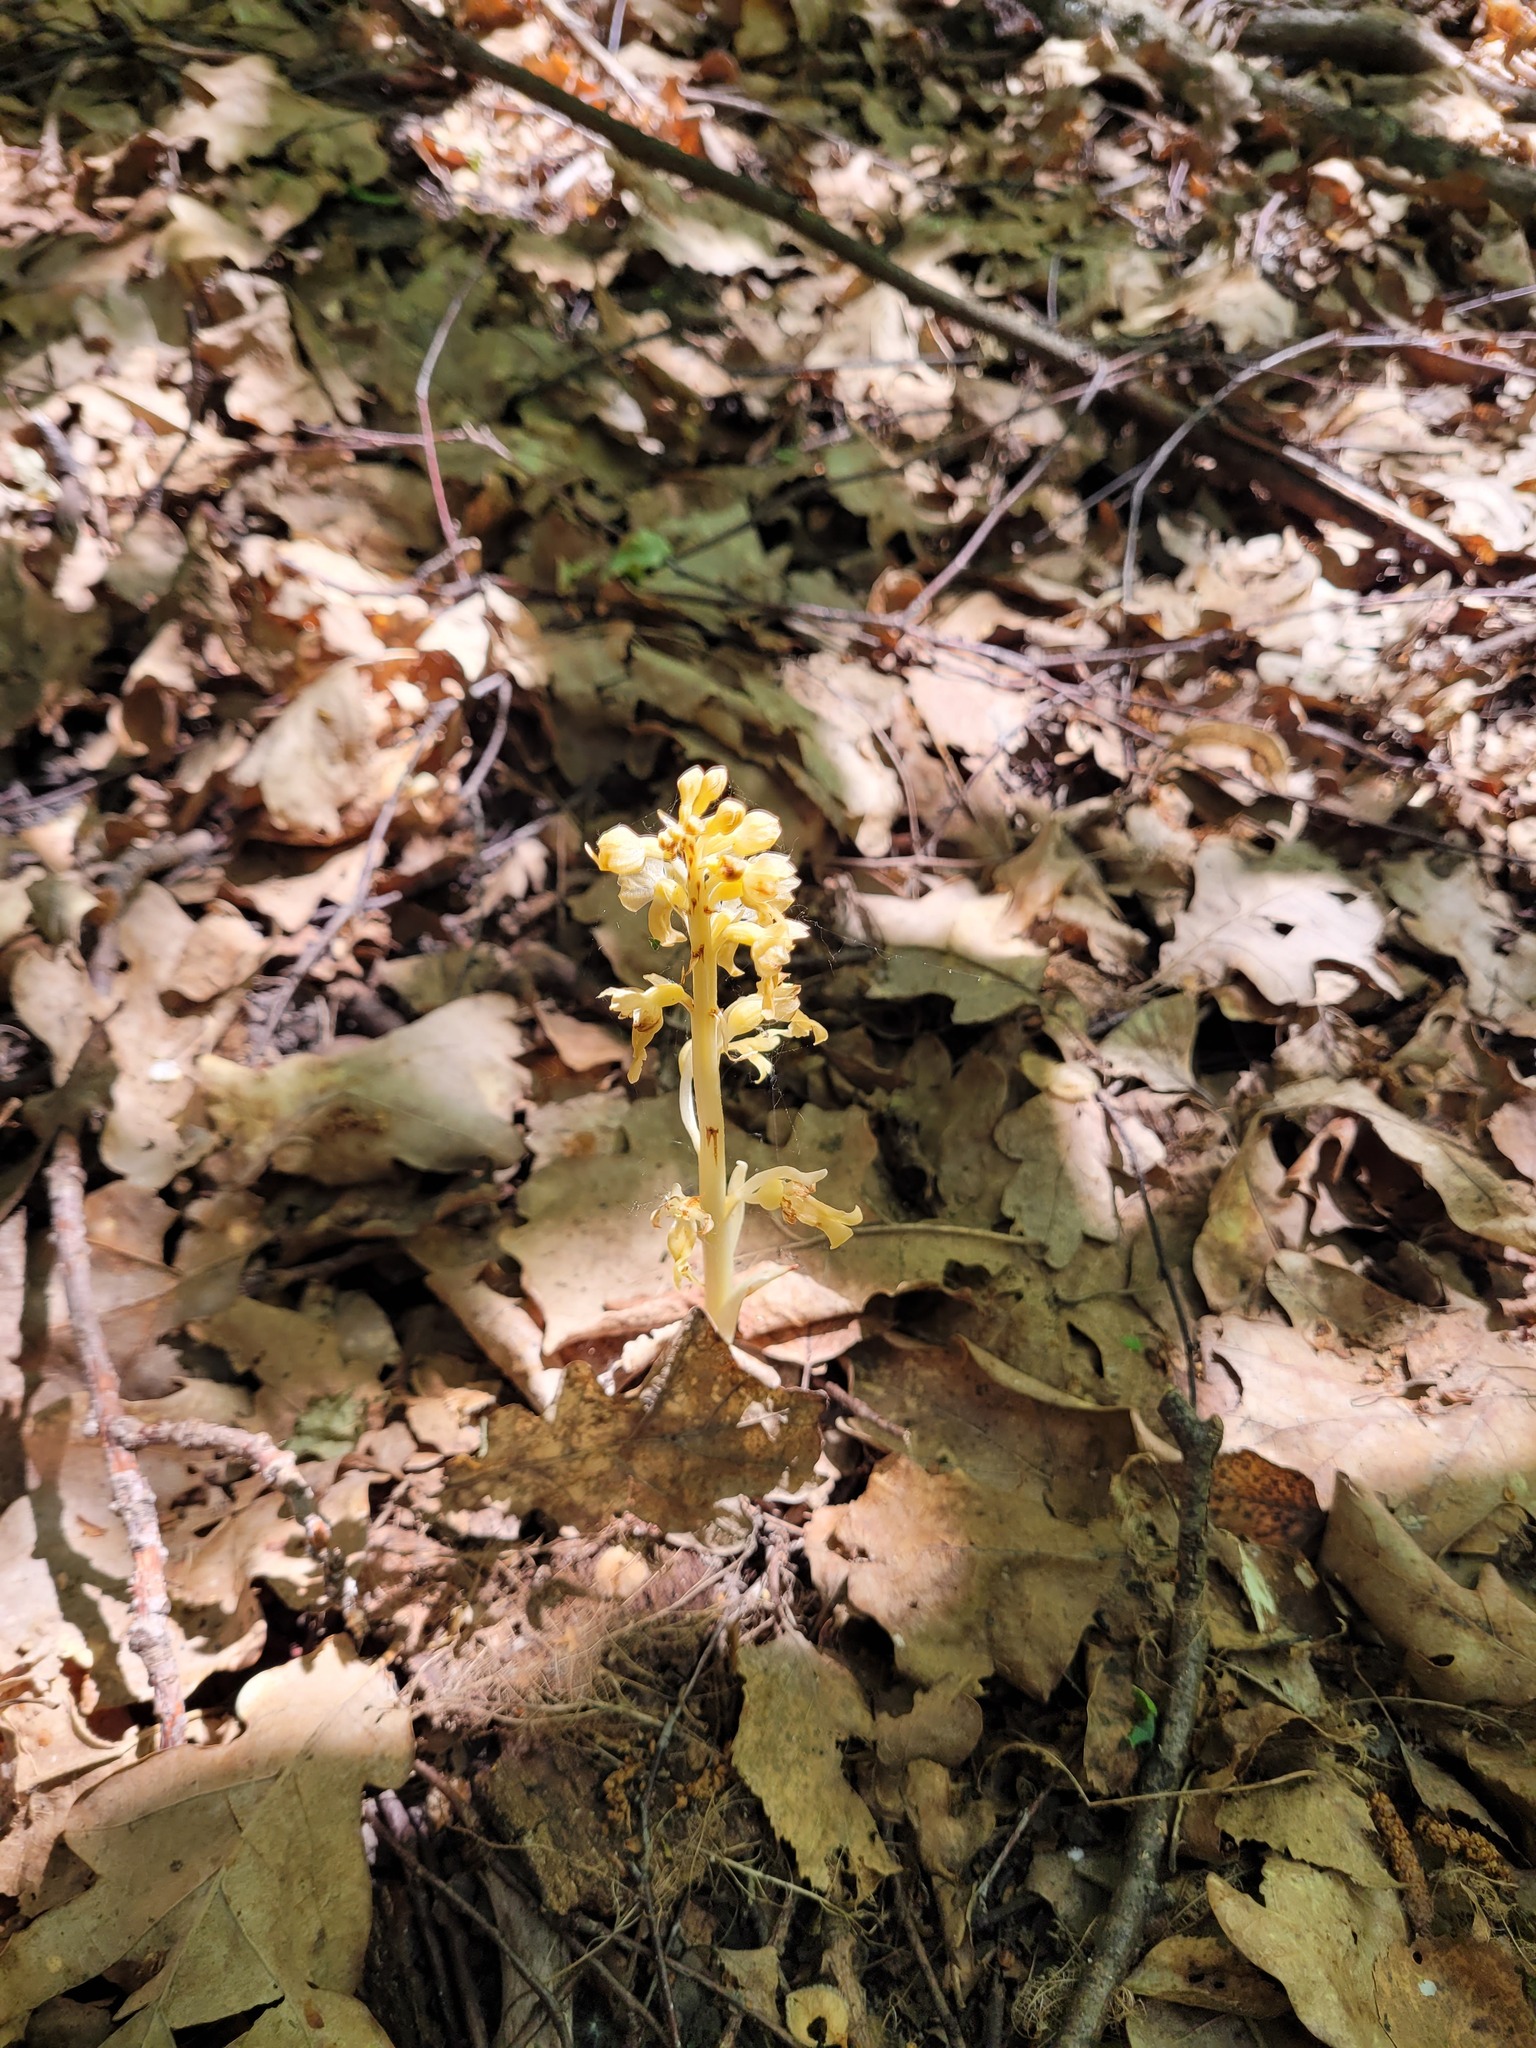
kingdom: Plantae
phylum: Tracheophyta
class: Liliopsida
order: Asparagales
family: Orchidaceae
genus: Neottia
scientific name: Neottia nidus-avis
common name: Bird's-nest orchid
